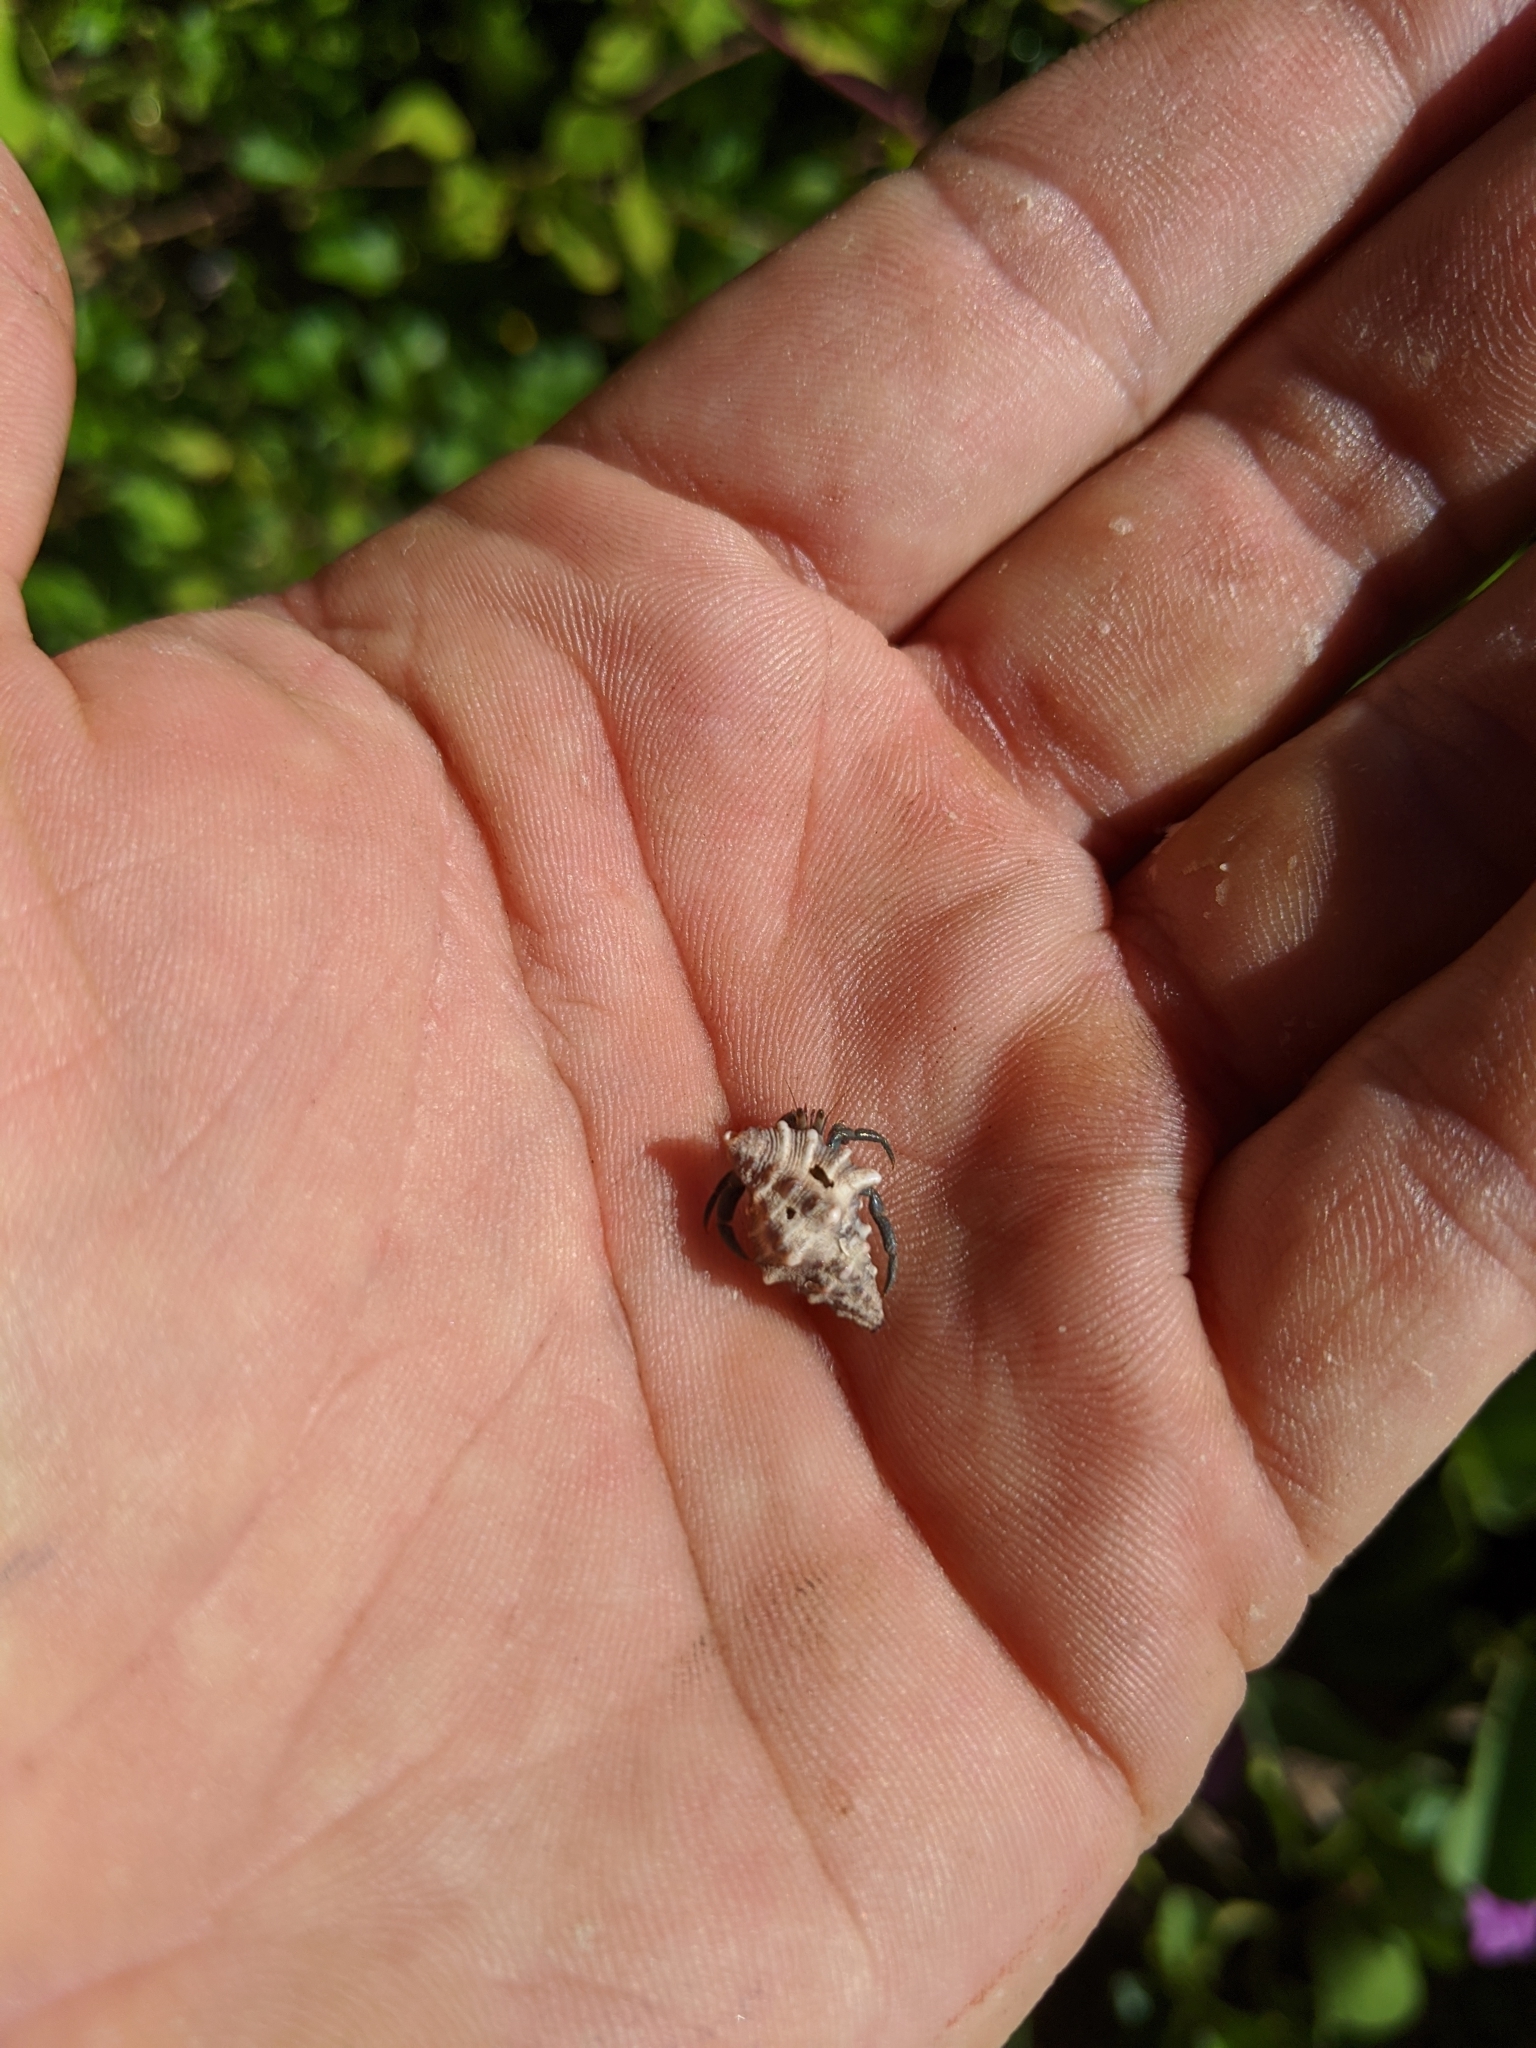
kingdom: Animalia
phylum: Arthropoda
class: Malacostraca
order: Decapoda
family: Coenobitidae
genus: Coenobita
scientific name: Coenobita compressus
